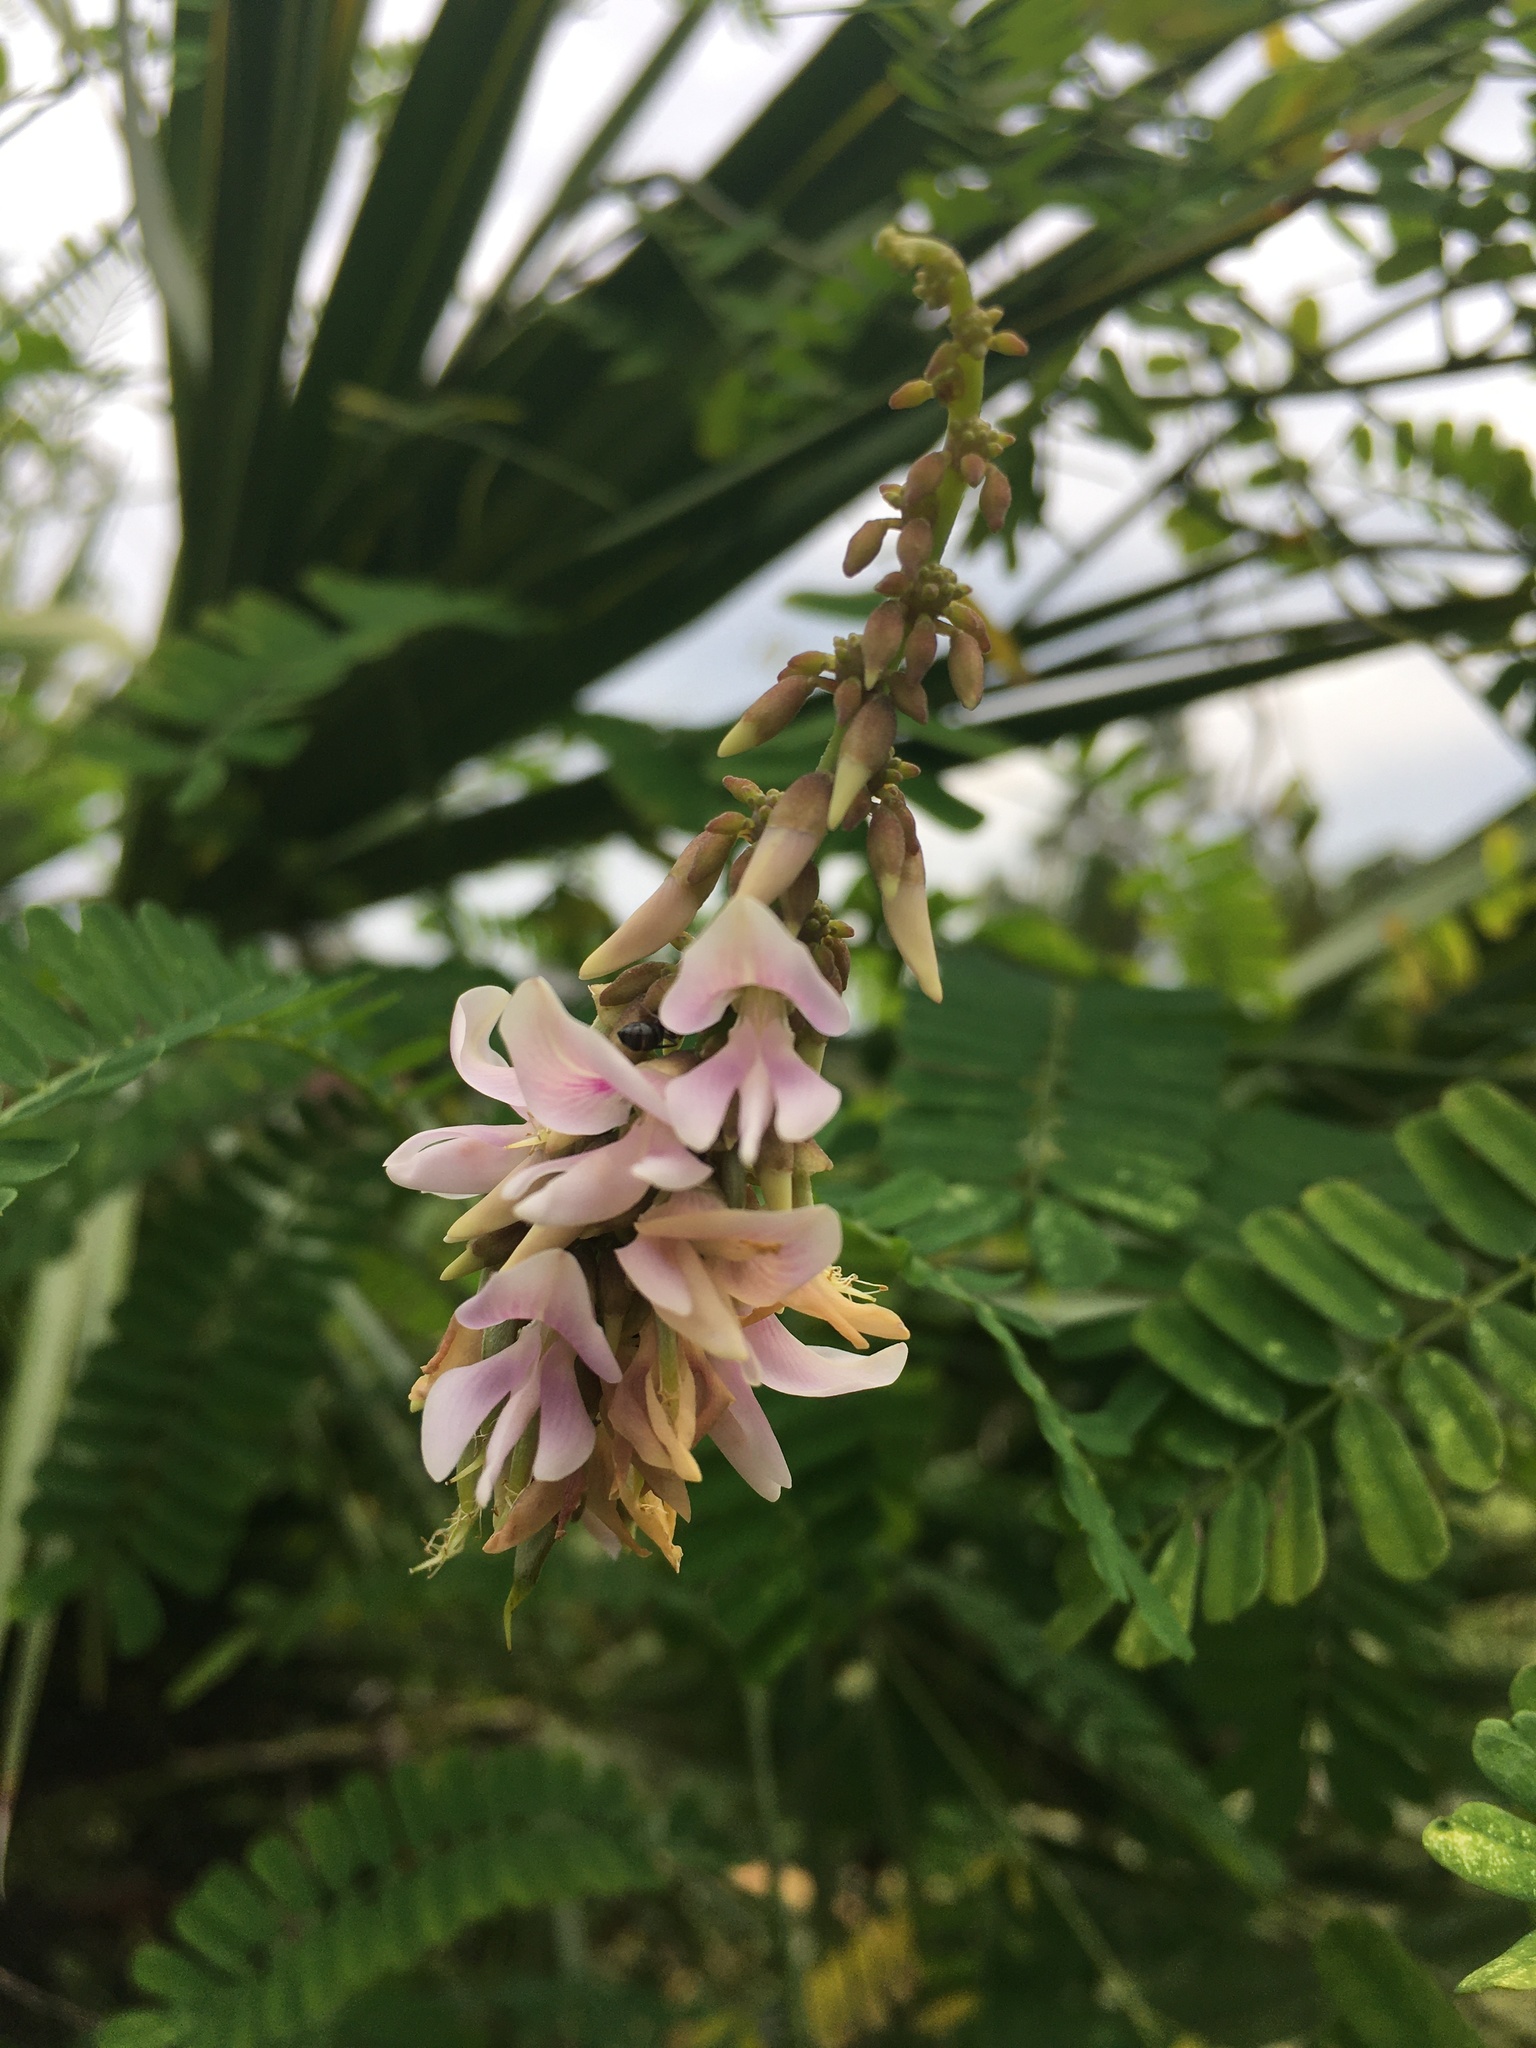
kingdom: Plantae
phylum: Tracheophyta
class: Magnoliopsida
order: Fabales
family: Fabaceae
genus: Abrus
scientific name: Abrus precatorius
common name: Rosarypea
